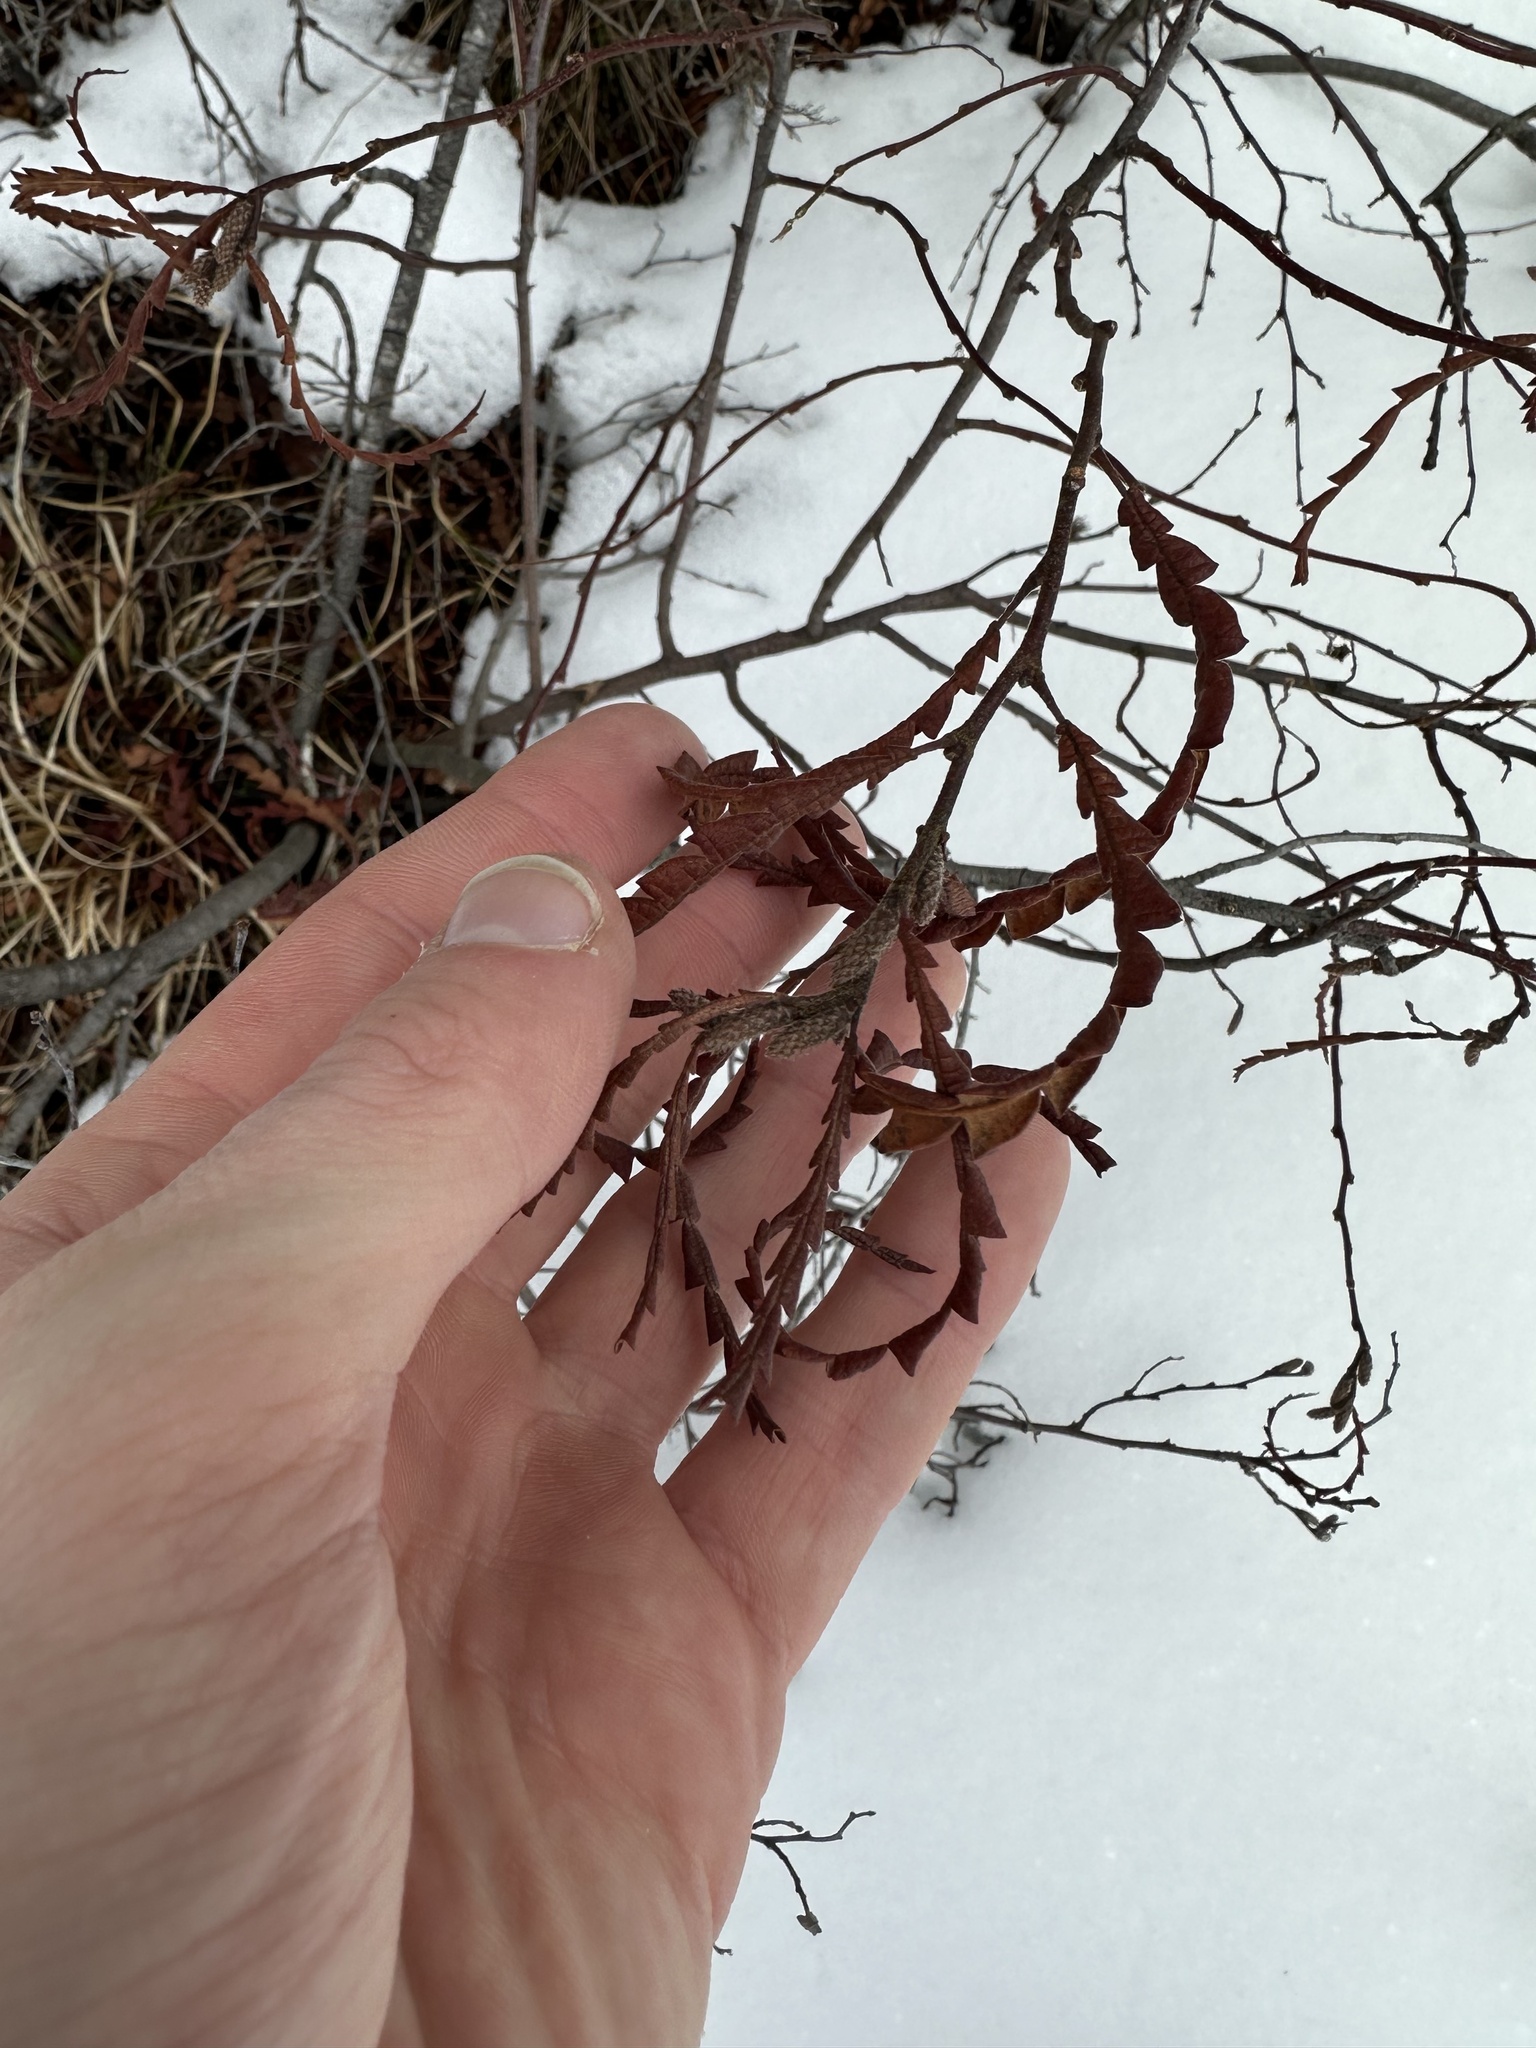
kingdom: Plantae
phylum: Tracheophyta
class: Magnoliopsida
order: Fagales
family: Myricaceae
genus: Comptonia
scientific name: Comptonia peregrina
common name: Sweet-fern
